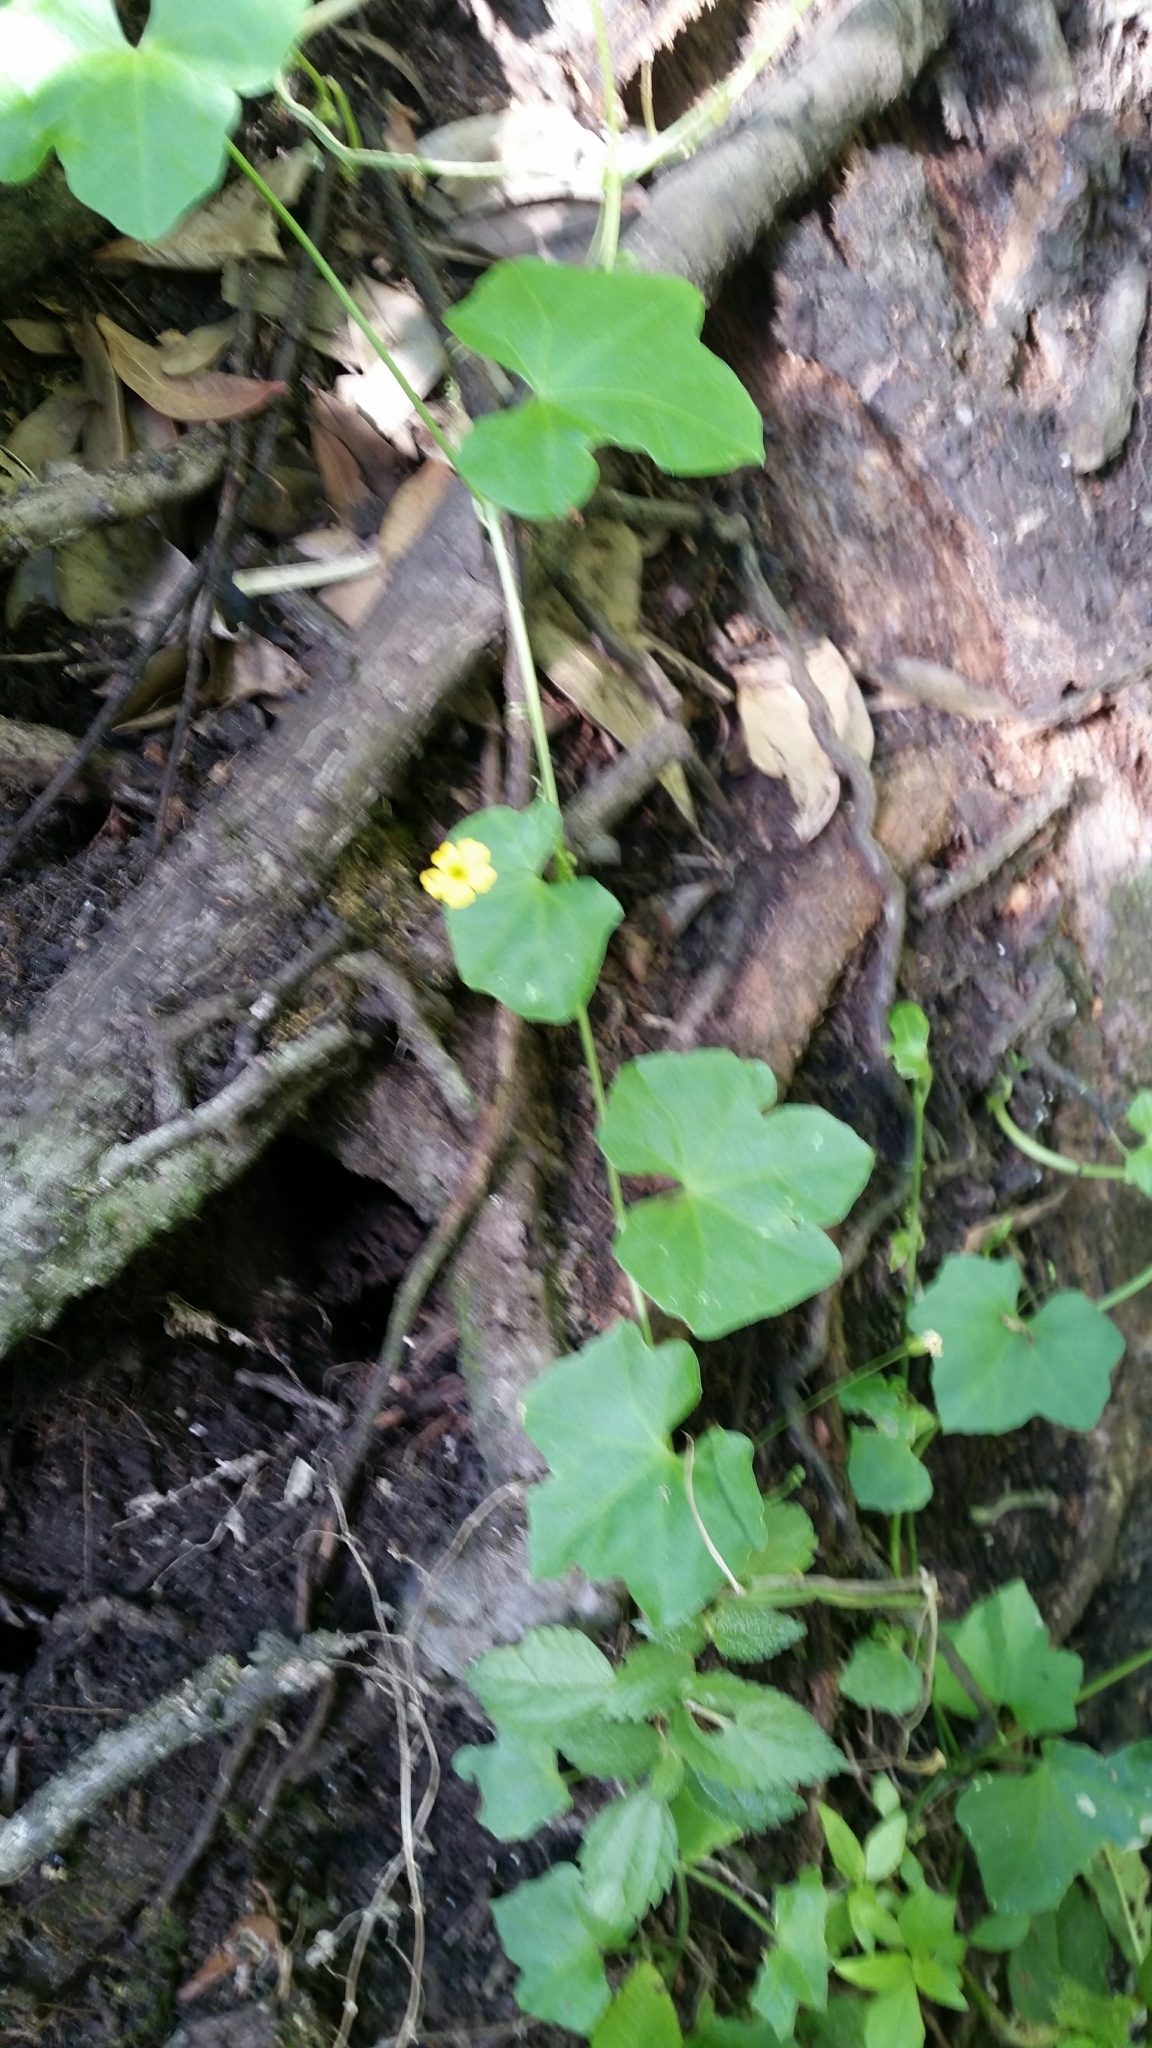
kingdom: Plantae
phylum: Tracheophyta
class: Magnoliopsida
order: Cucurbitales
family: Cucurbitaceae
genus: Melothria
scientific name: Melothria pendula
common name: Creeping-cucumber
